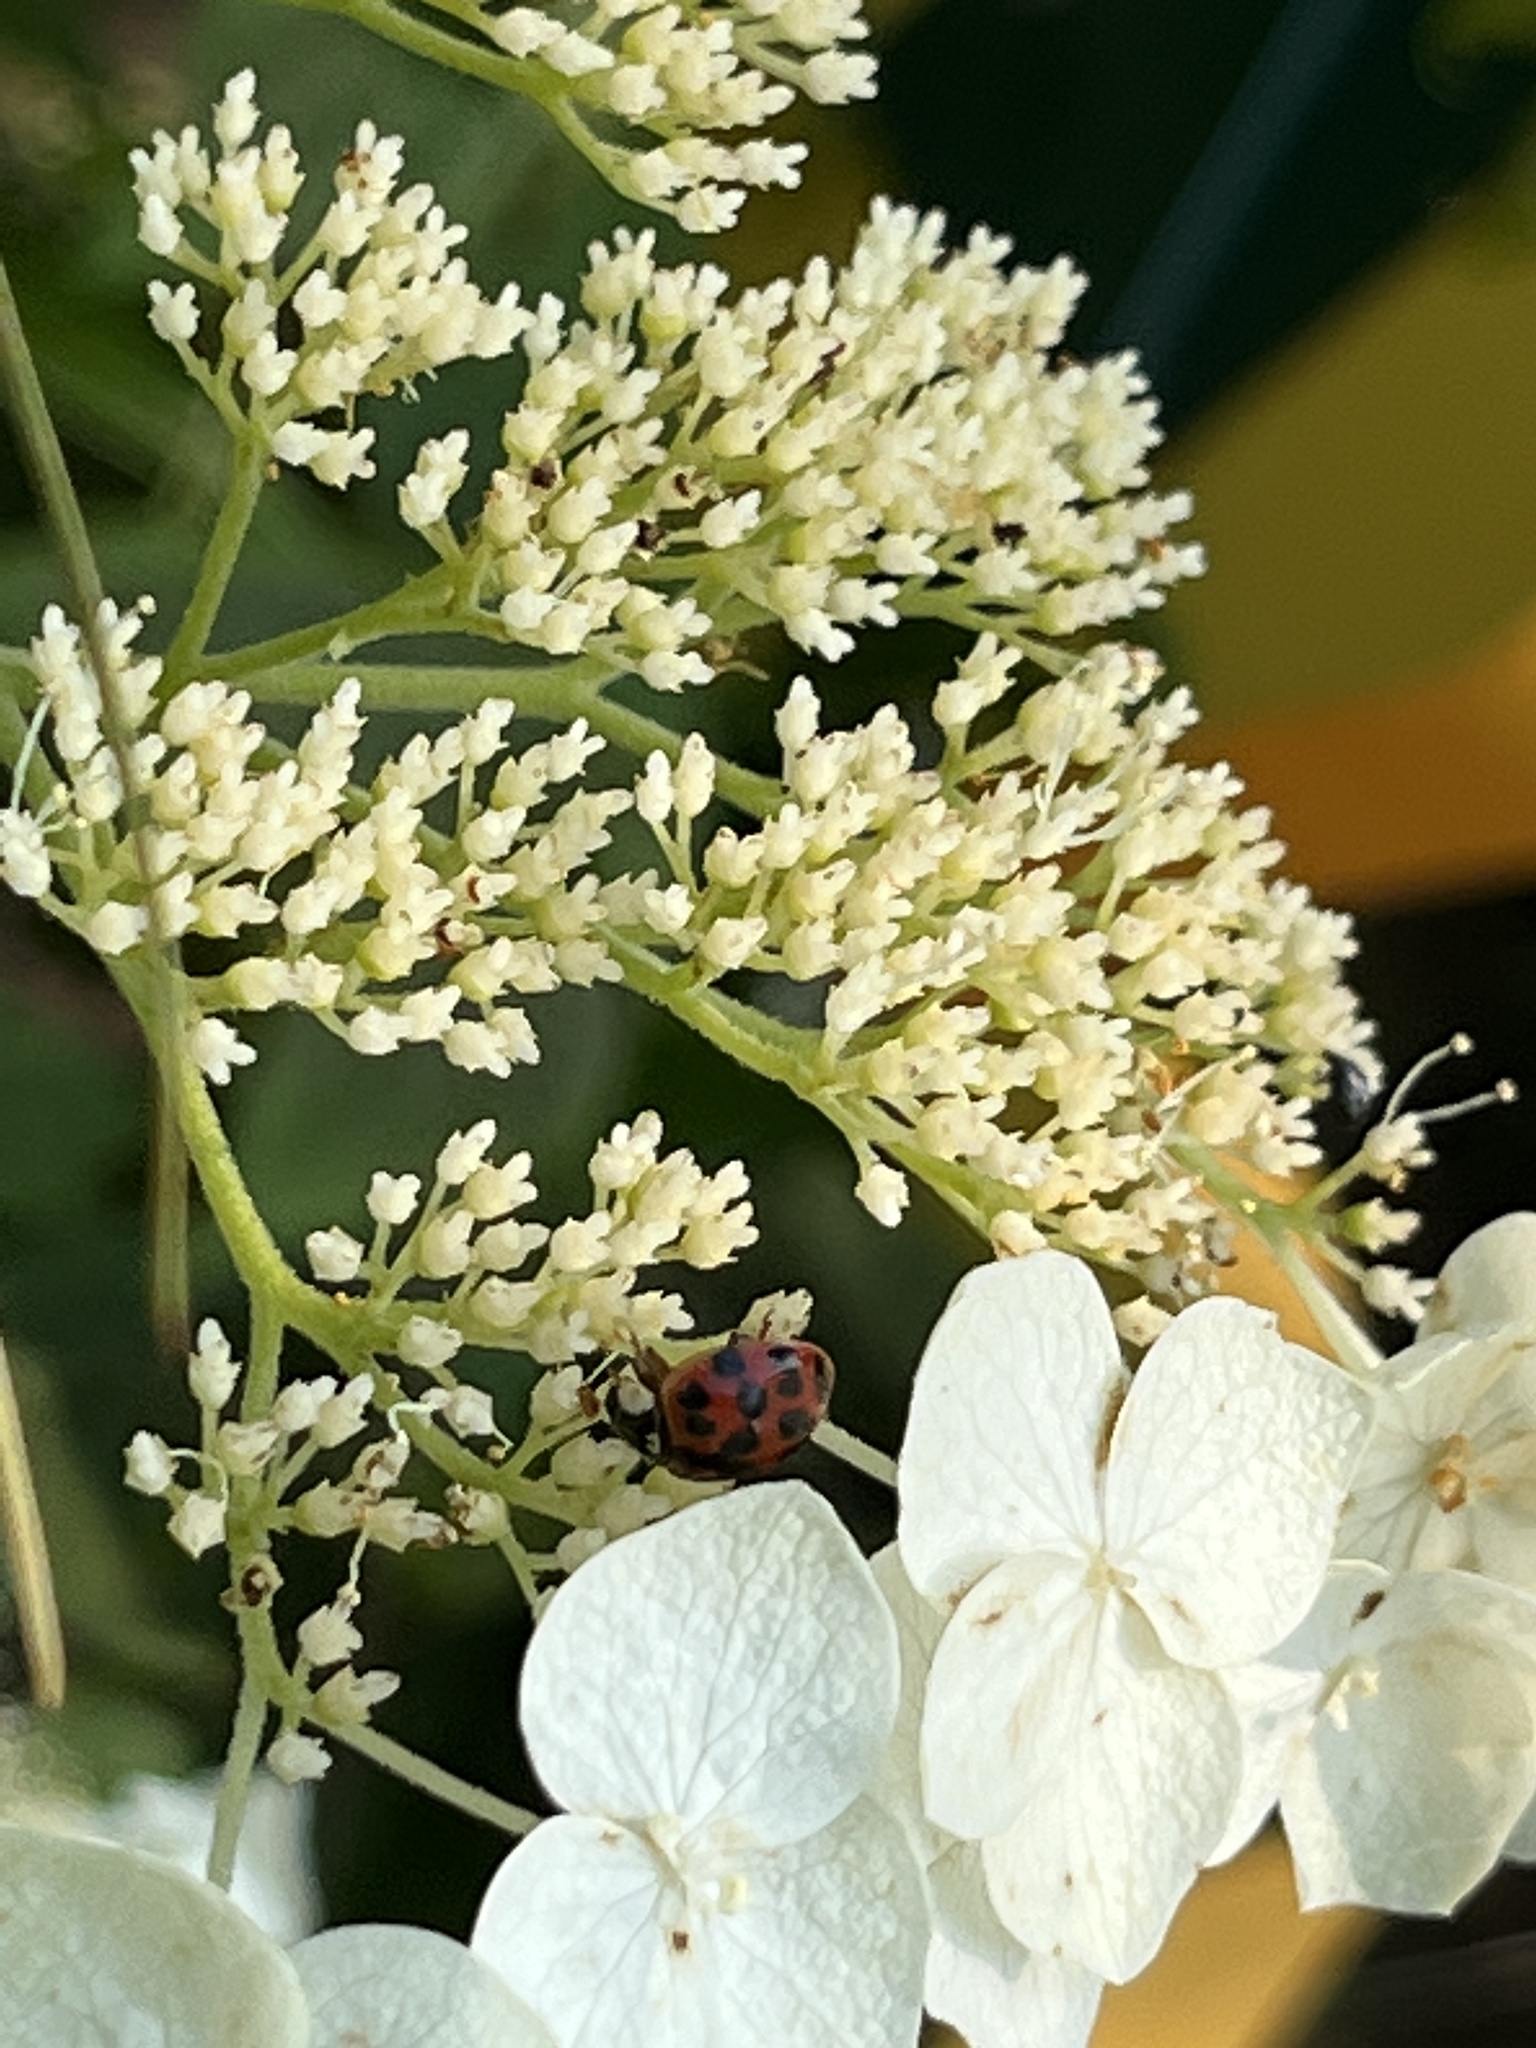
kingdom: Animalia
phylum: Arthropoda
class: Insecta
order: Coleoptera
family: Coccinellidae
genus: Harmonia
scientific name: Harmonia axyridis
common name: Harlequin ladybird
